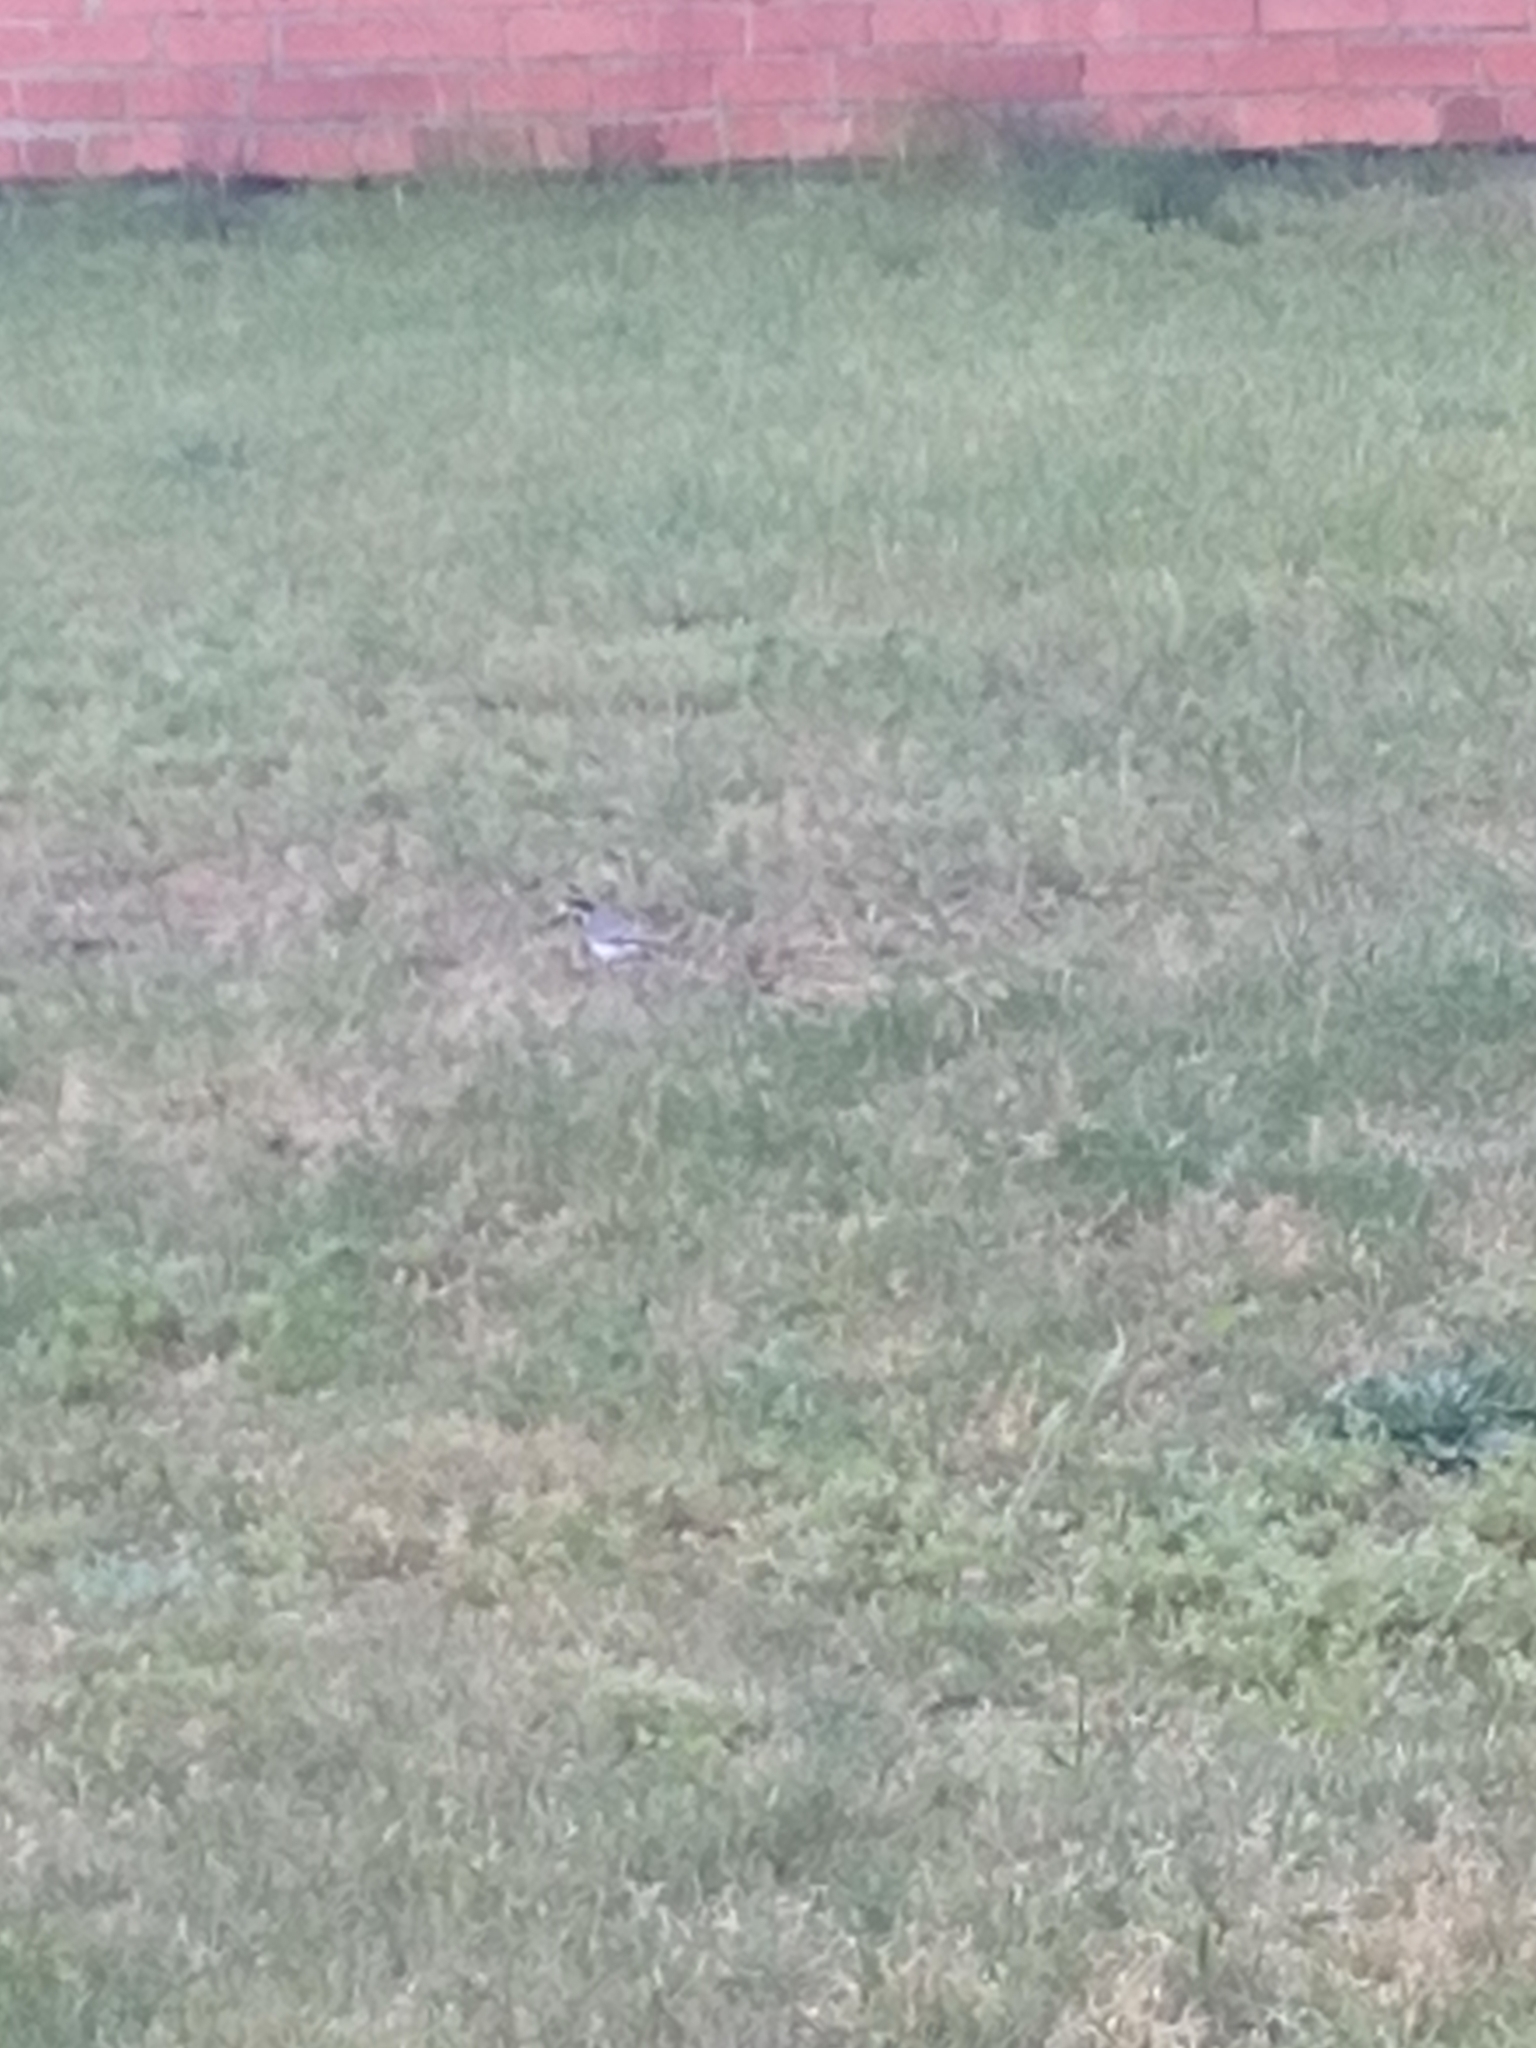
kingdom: Animalia
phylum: Chordata
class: Aves
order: Passeriformes
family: Motacillidae
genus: Motacilla
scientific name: Motacilla alba
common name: White wagtail
